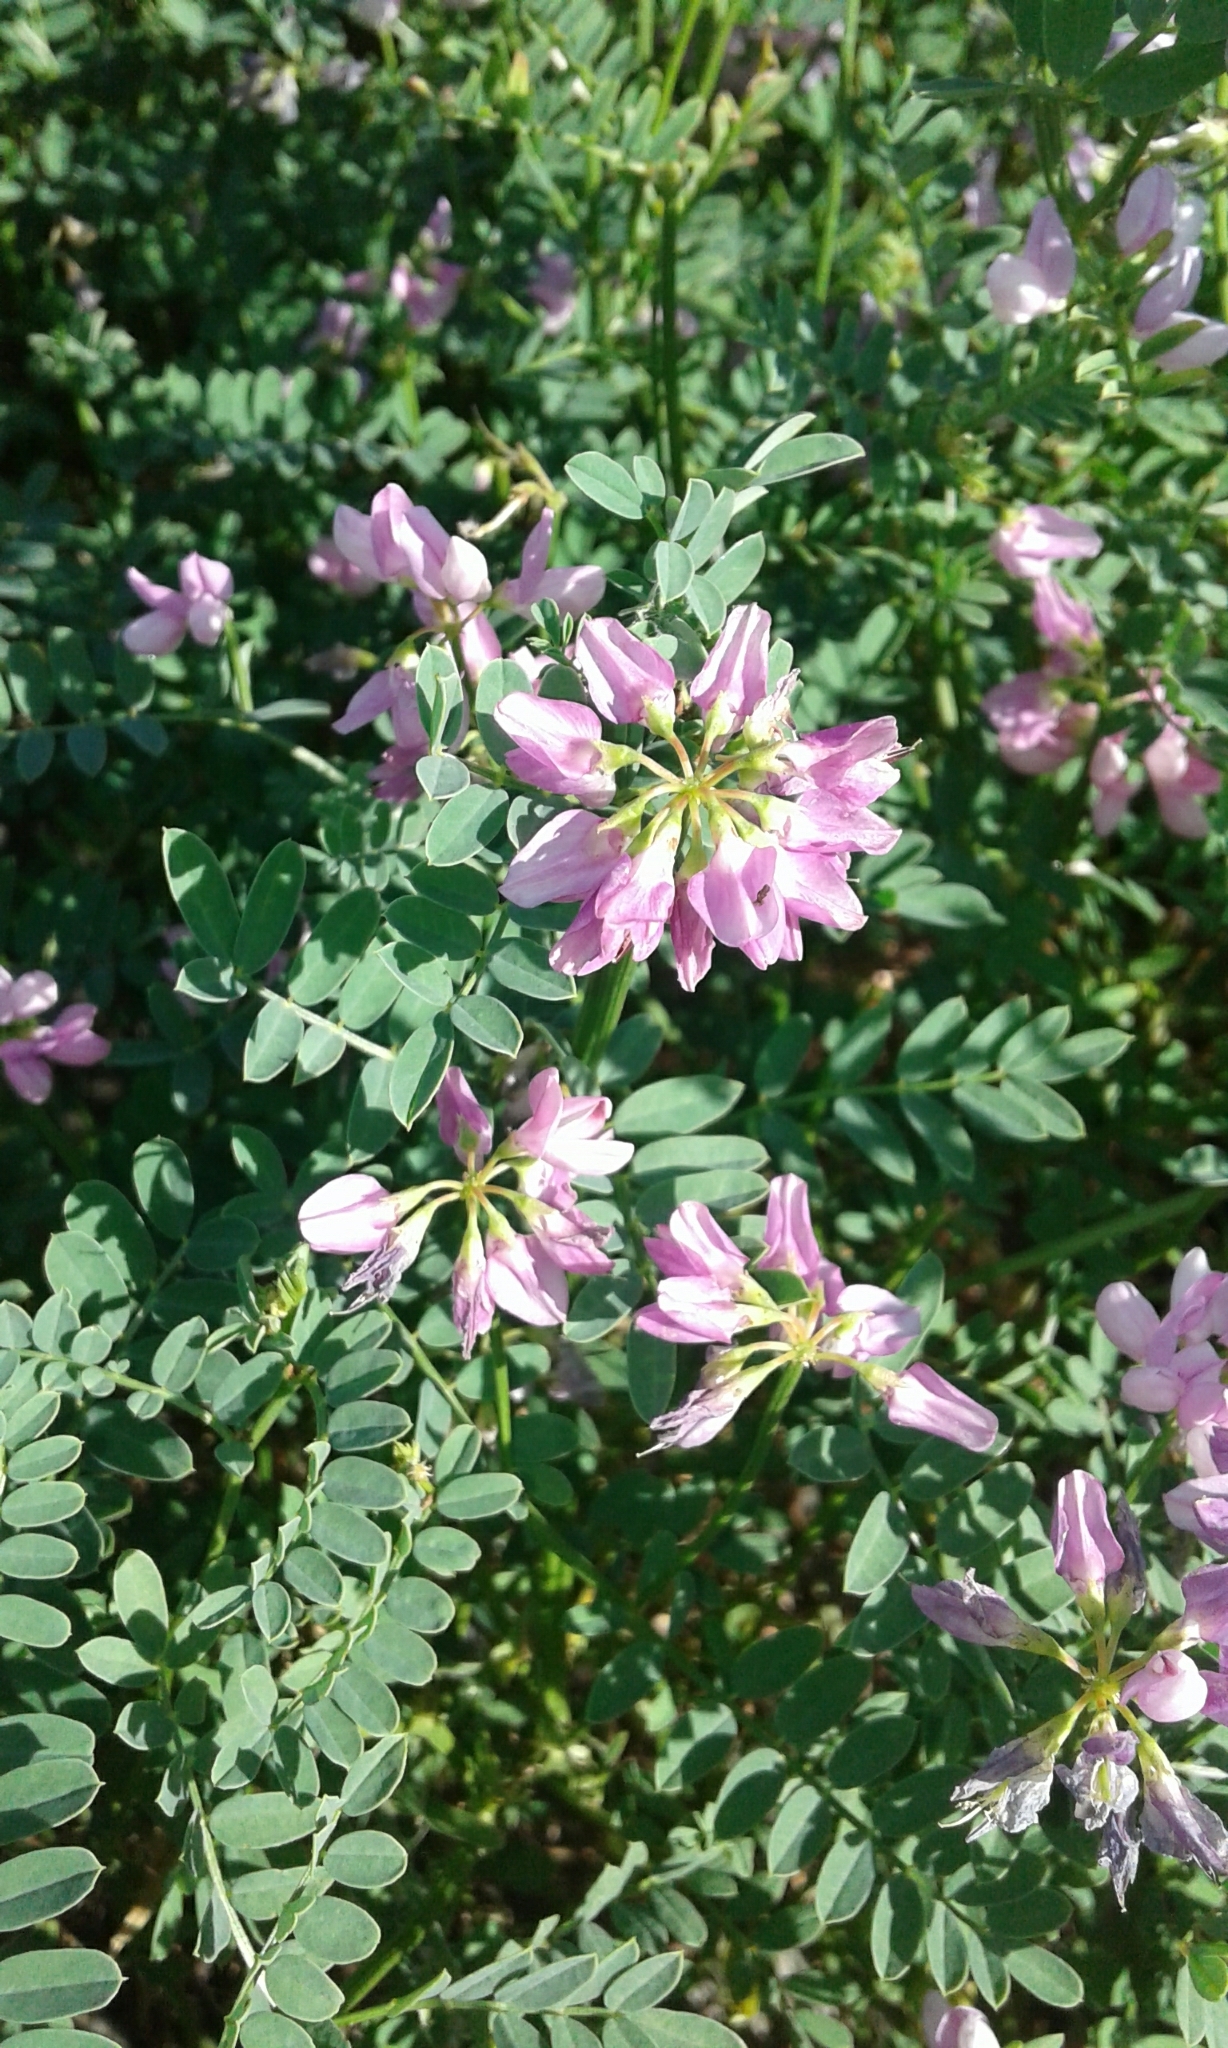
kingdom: Plantae
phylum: Tracheophyta
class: Magnoliopsida
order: Fabales
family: Fabaceae
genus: Coronilla
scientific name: Coronilla varia
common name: Crownvetch
